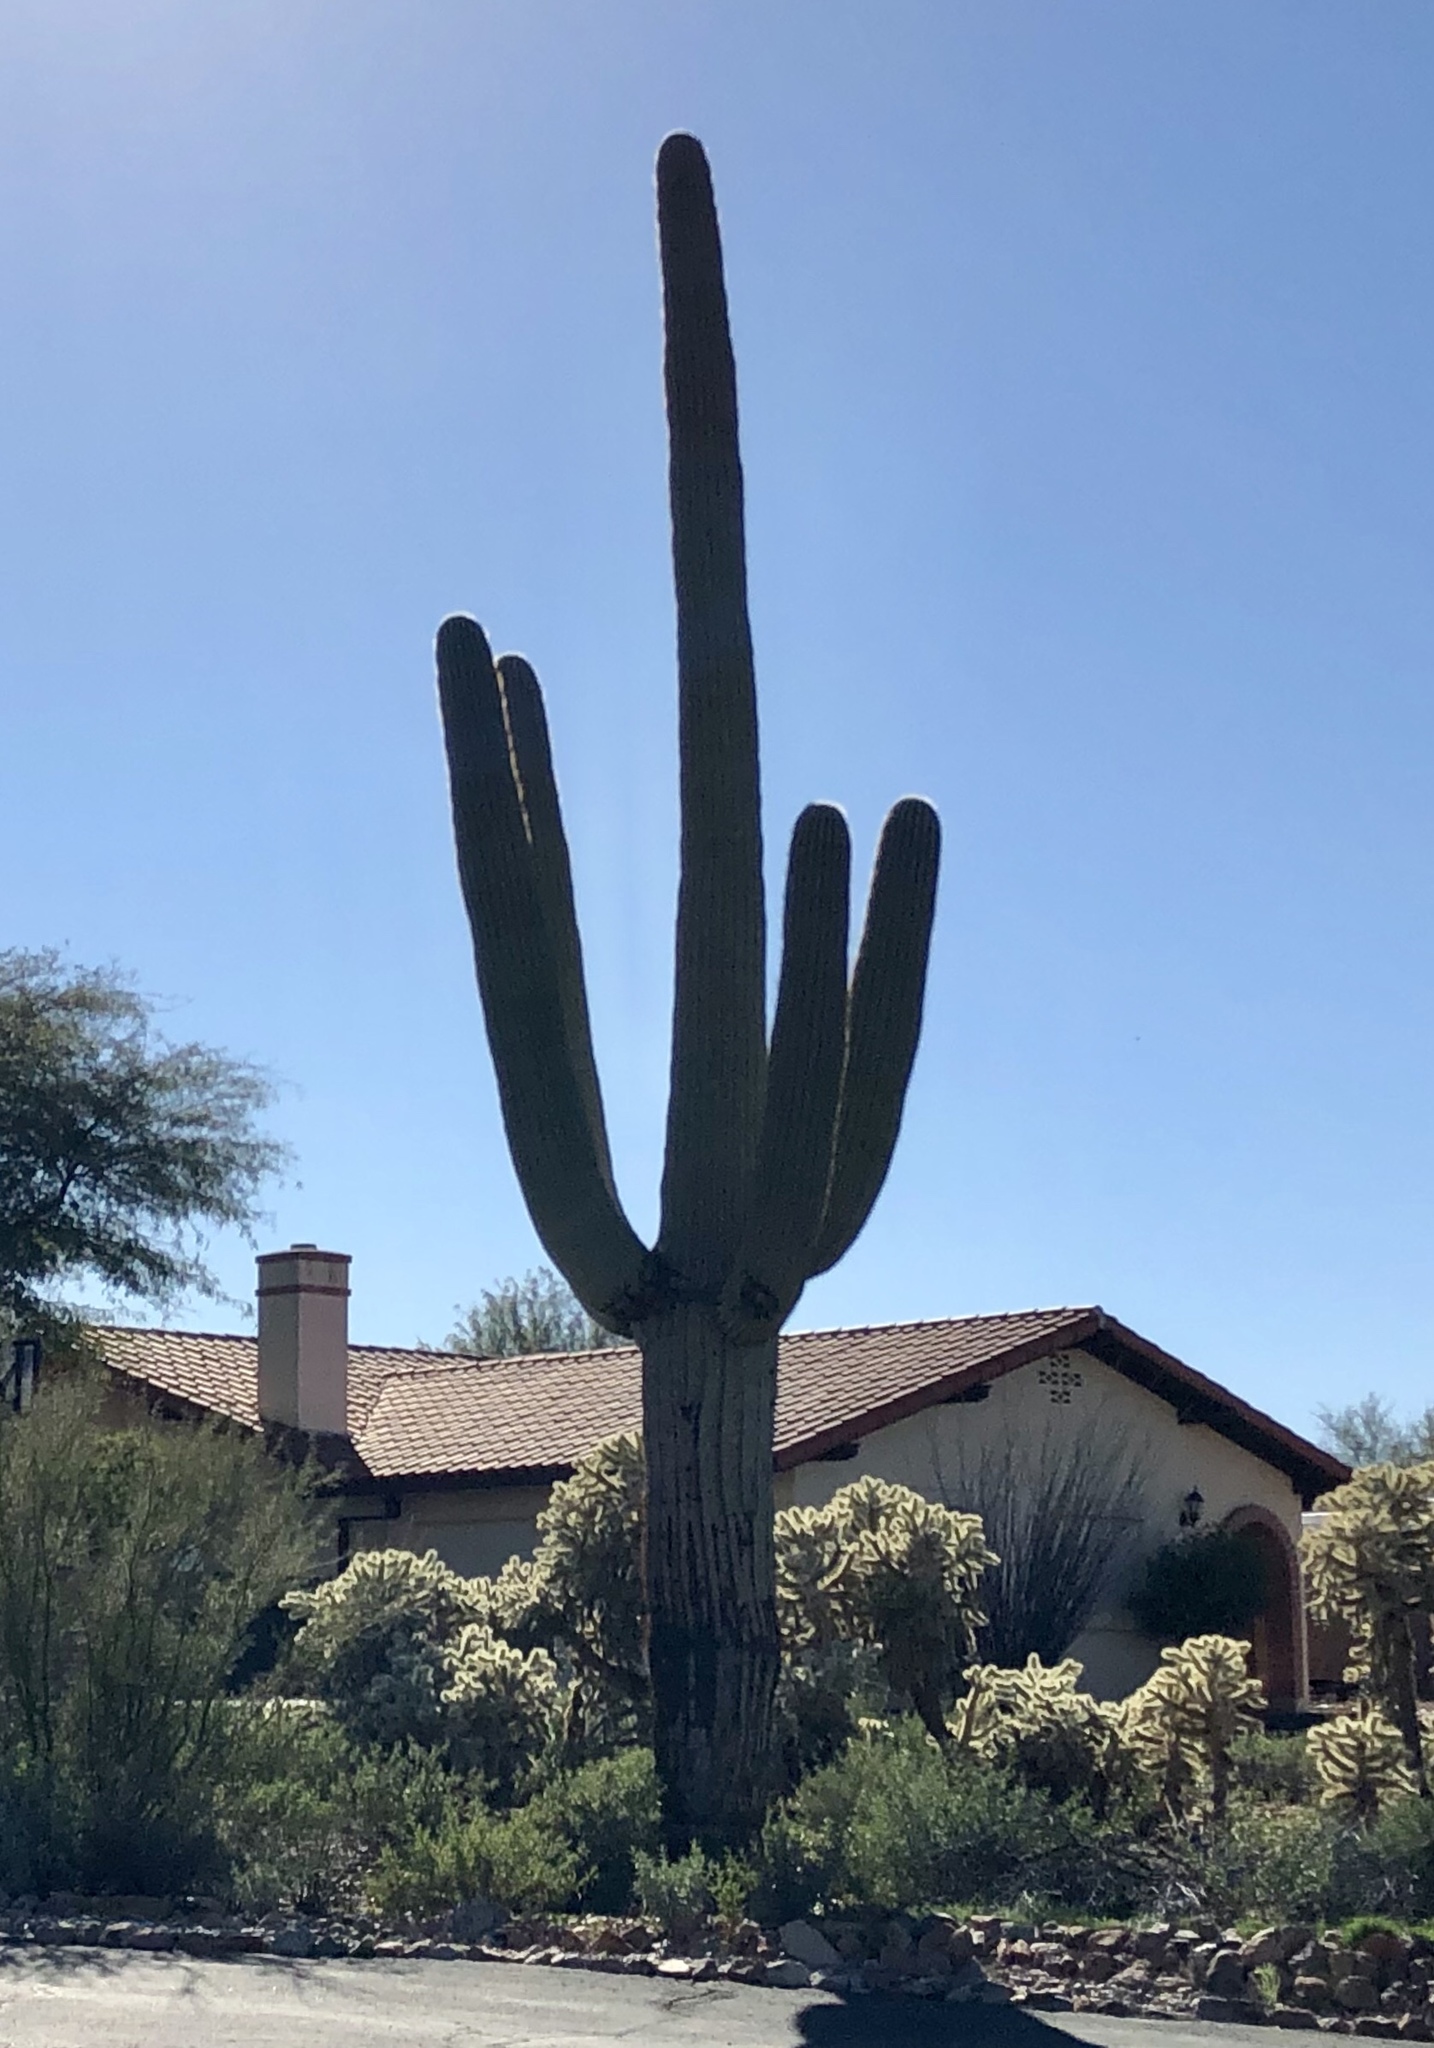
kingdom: Plantae
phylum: Tracheophyta
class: Magnoliopsida
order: Caryophyllales
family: Cactaceae
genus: Carnegiea
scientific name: Carnegiea gigantea
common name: Saguaro
